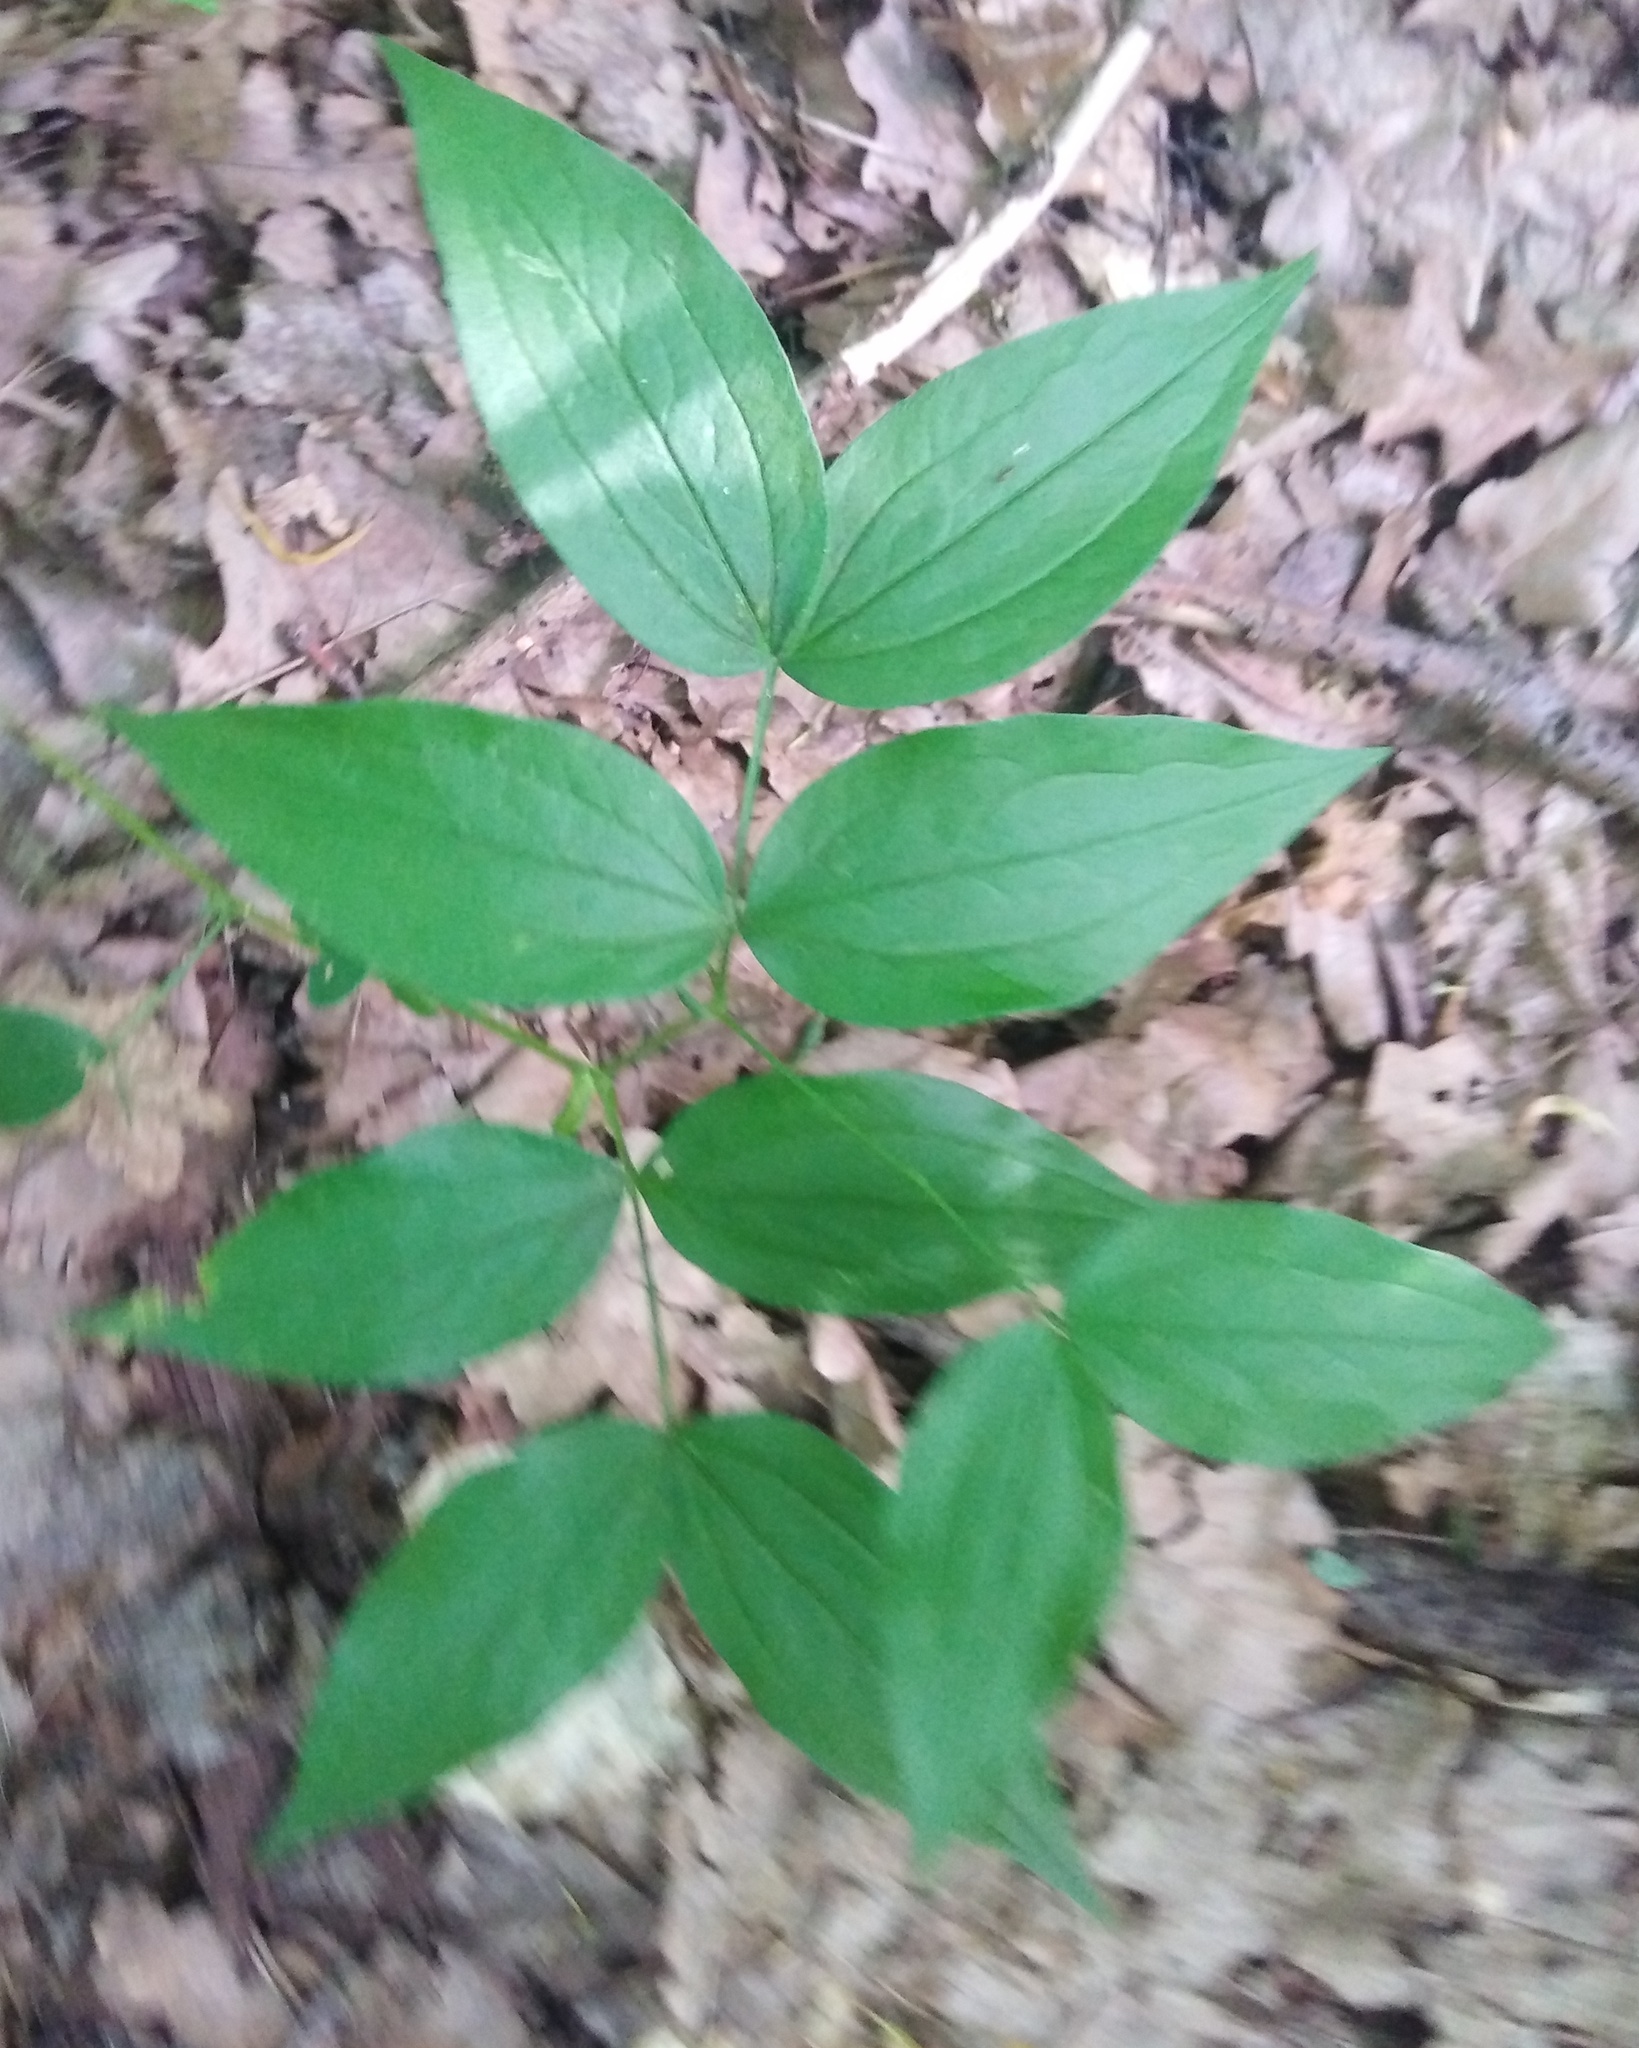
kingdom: Plantae
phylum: Tracheophyta
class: Magnoliopsida
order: Fabales
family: Fabaceae
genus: Lathyrus
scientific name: Lathyrus vernus
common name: Spring pea
